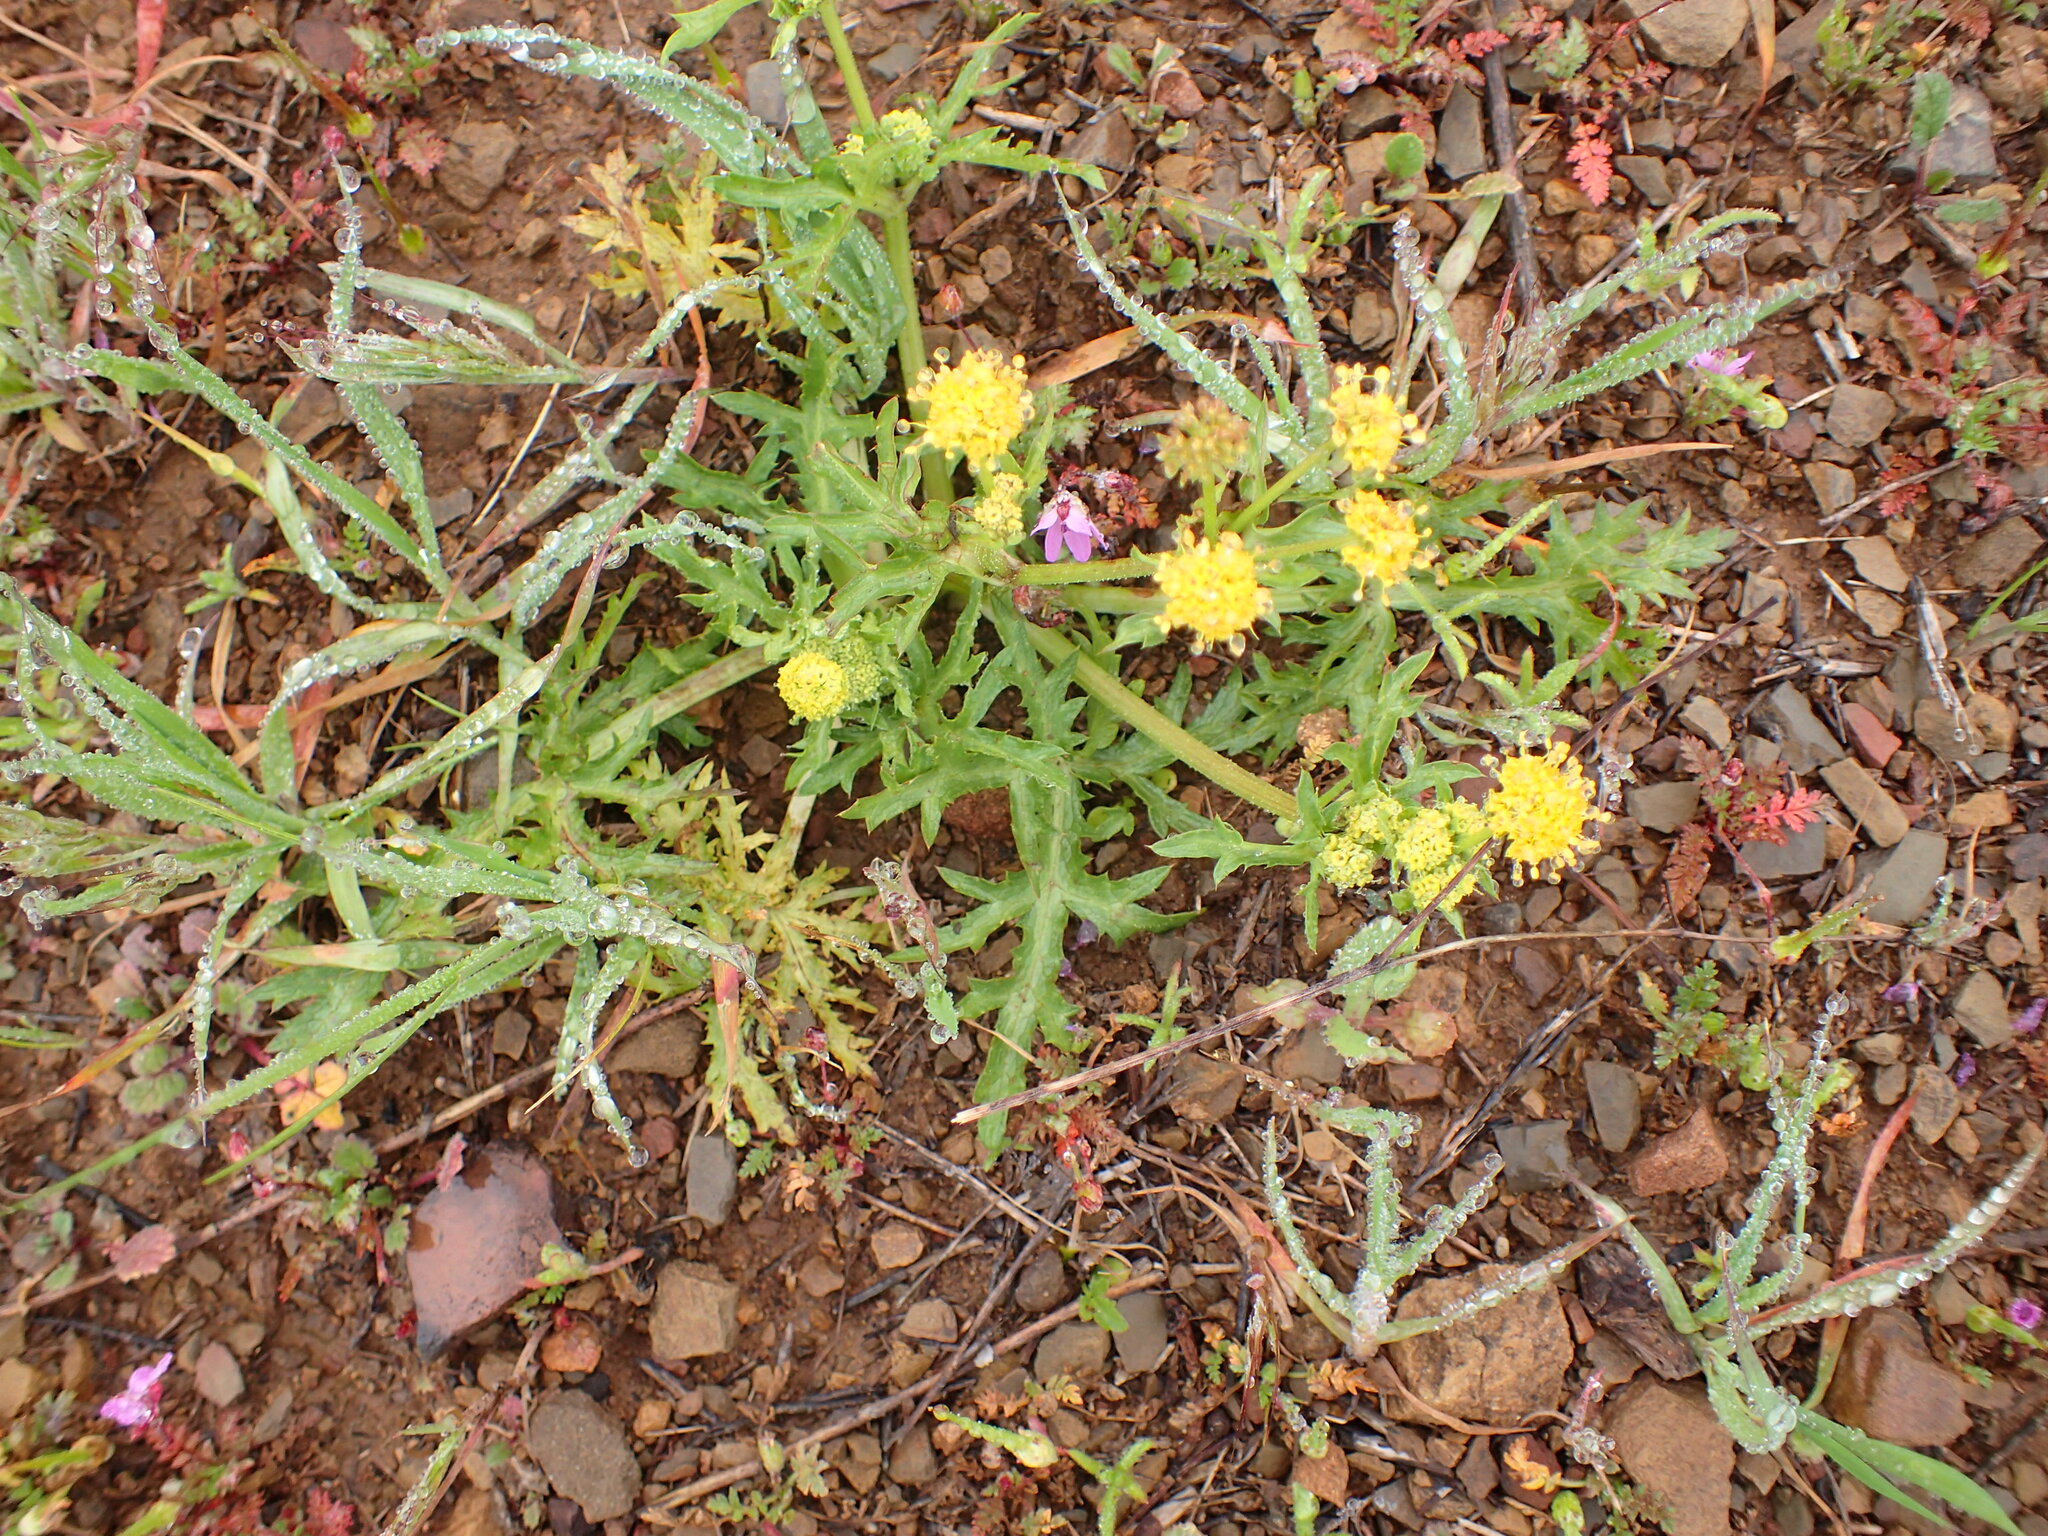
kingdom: Plantae
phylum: Tracheophyta
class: Magnoliopsida
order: Apiales
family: Apiaceae
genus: Sanicula
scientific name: Sanicula arguta
